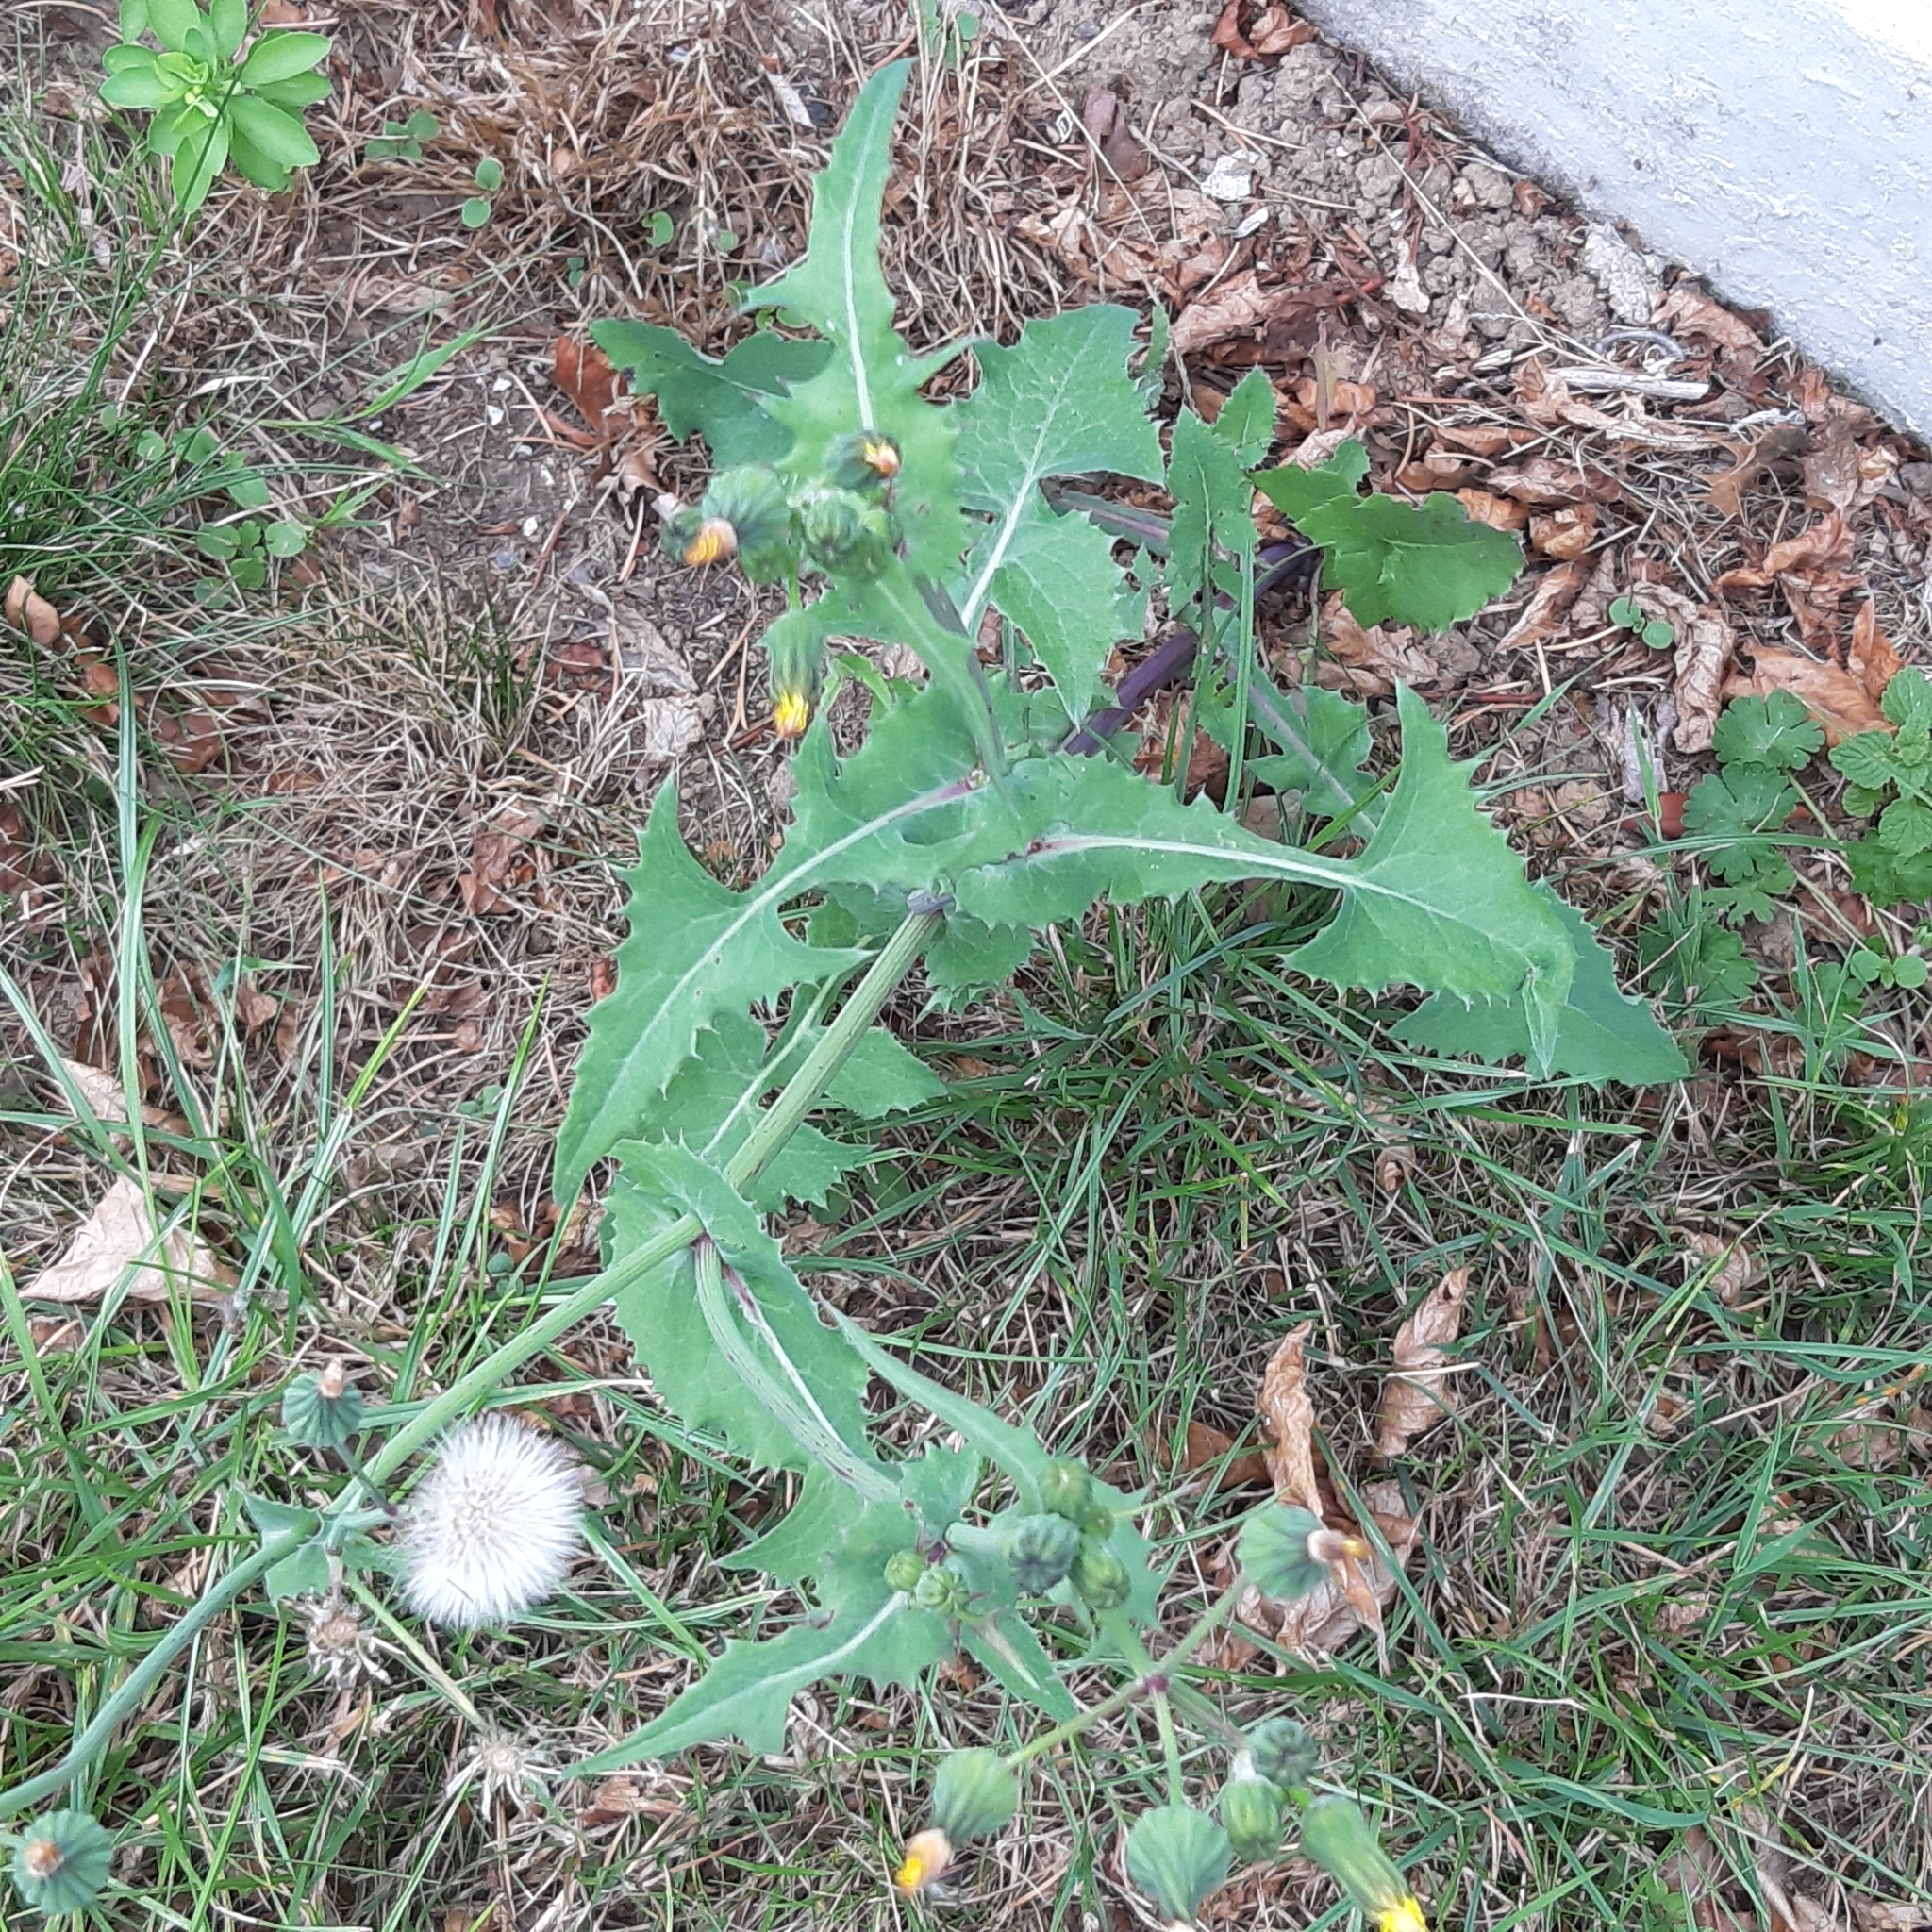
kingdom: Plantae
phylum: Tracheophyta
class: Magnoliopsida
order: Asterales
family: Asteraceae
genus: Sonchus
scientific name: Sonchus oleraceus
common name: Common sowthistle
